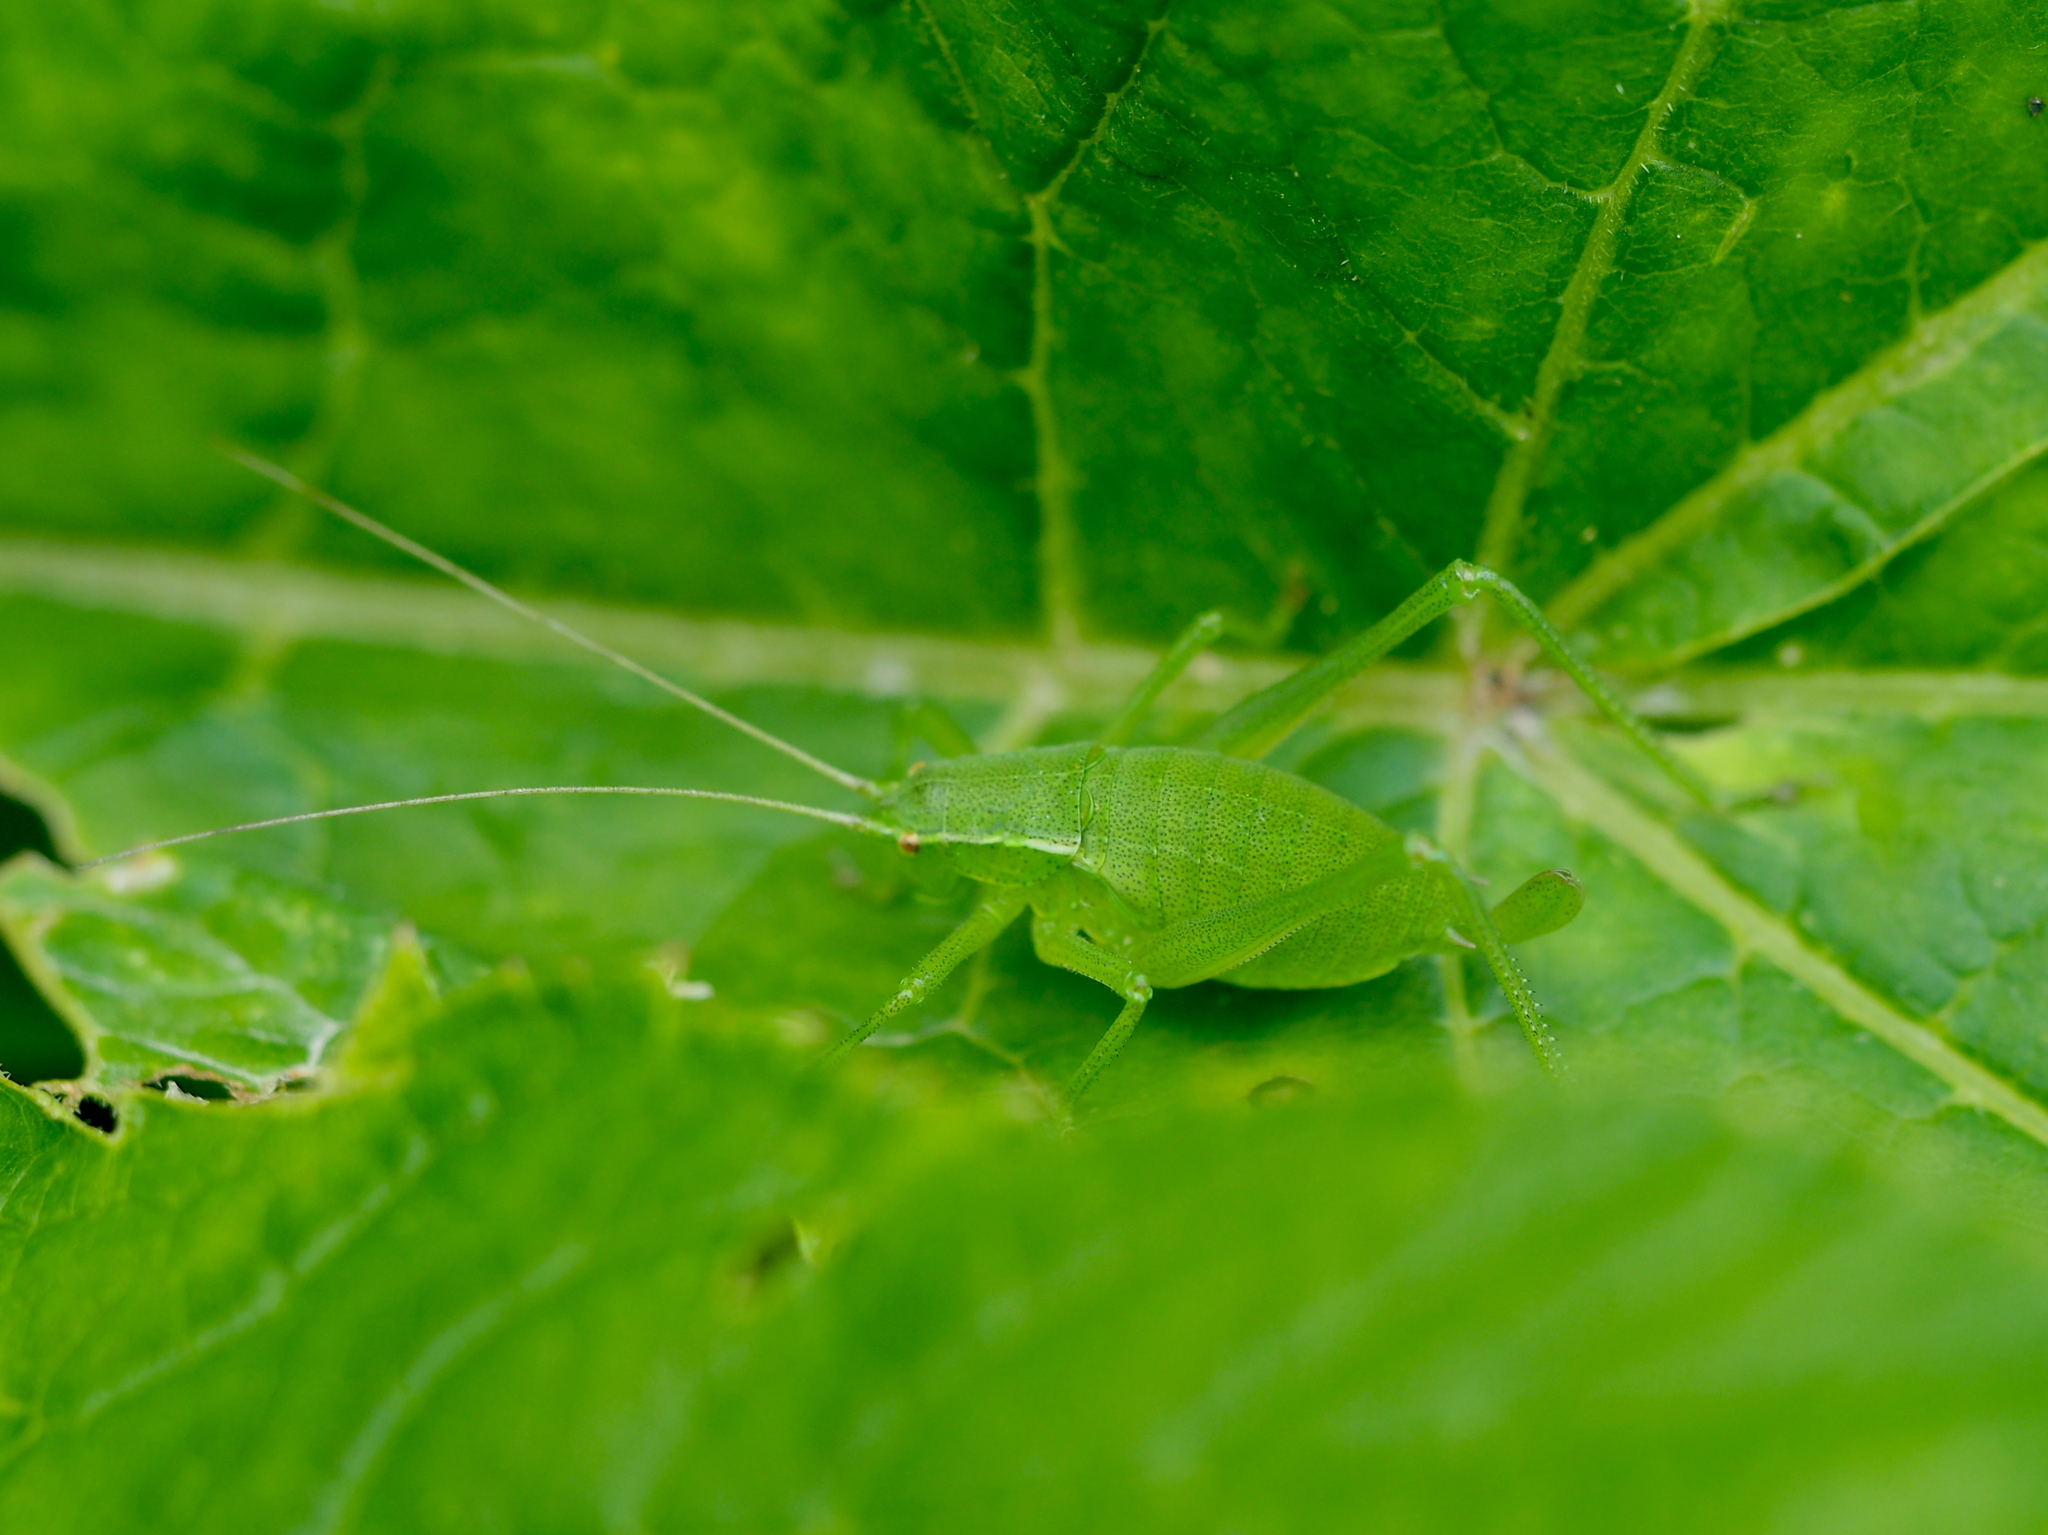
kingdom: Animalia
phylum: Arthropoda
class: Insecta
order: Orthoptera
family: Tettigoniidae
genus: Isophya
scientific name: Isophya camptoxypha
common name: Curve-tailed plump bush-cricket
